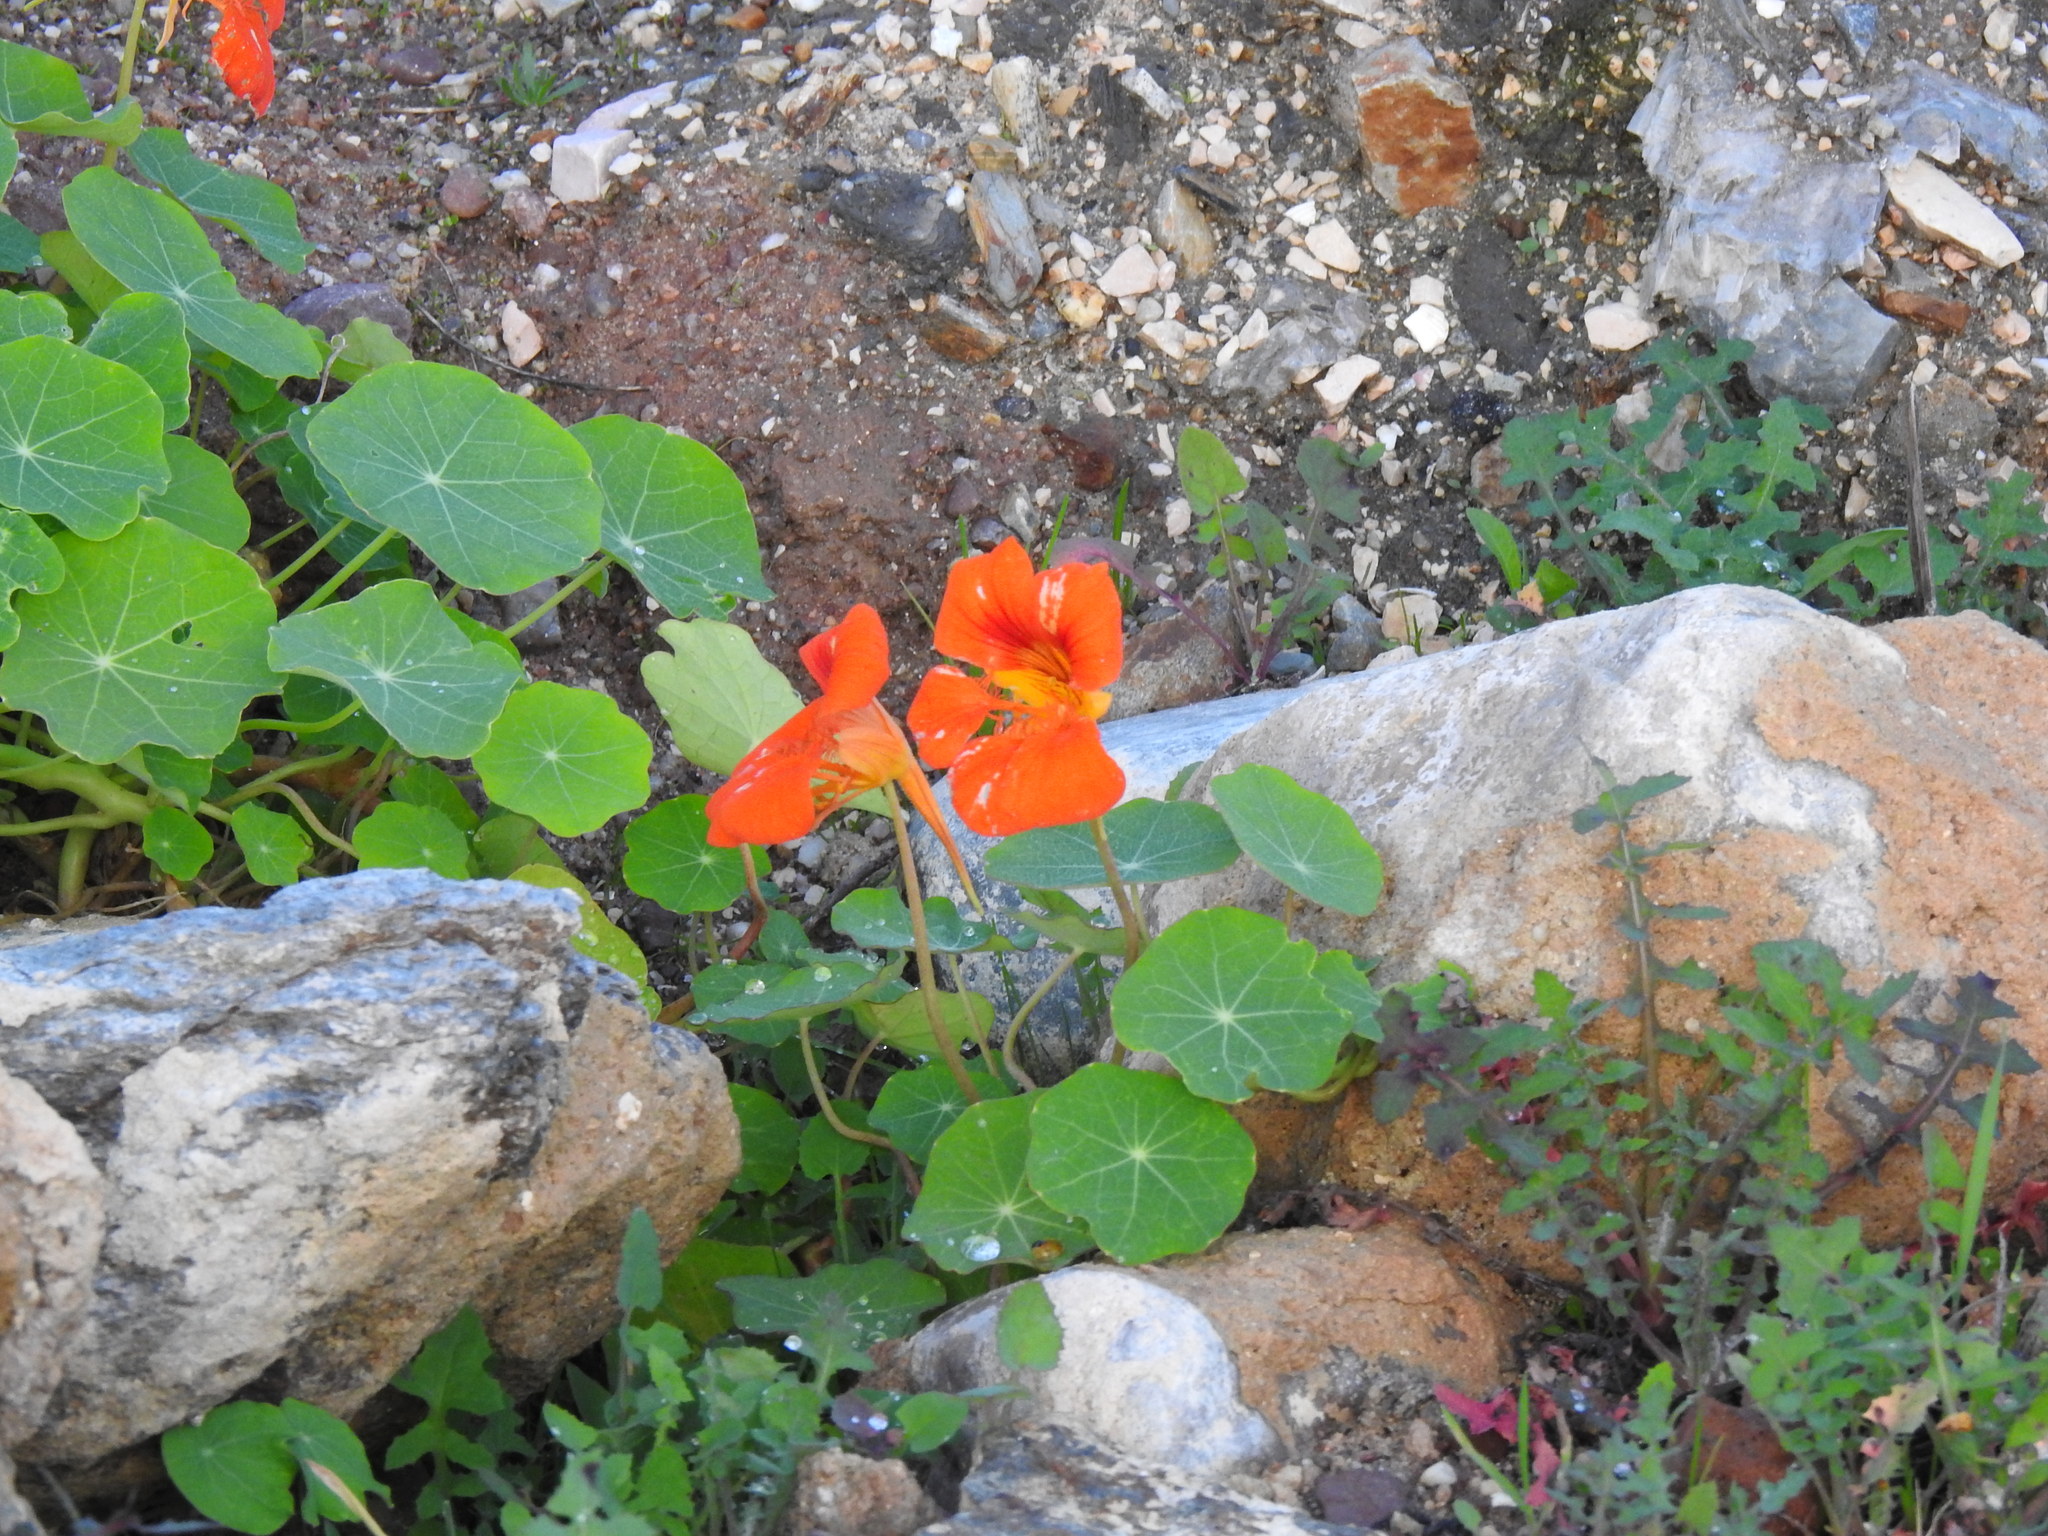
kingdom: Plantae
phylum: Tracheophyta
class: Magnoliopsida
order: Brassicales
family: Tropaeolaceae
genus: Tropaeolum
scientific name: Tropaeolum majus
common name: Nasturtium
